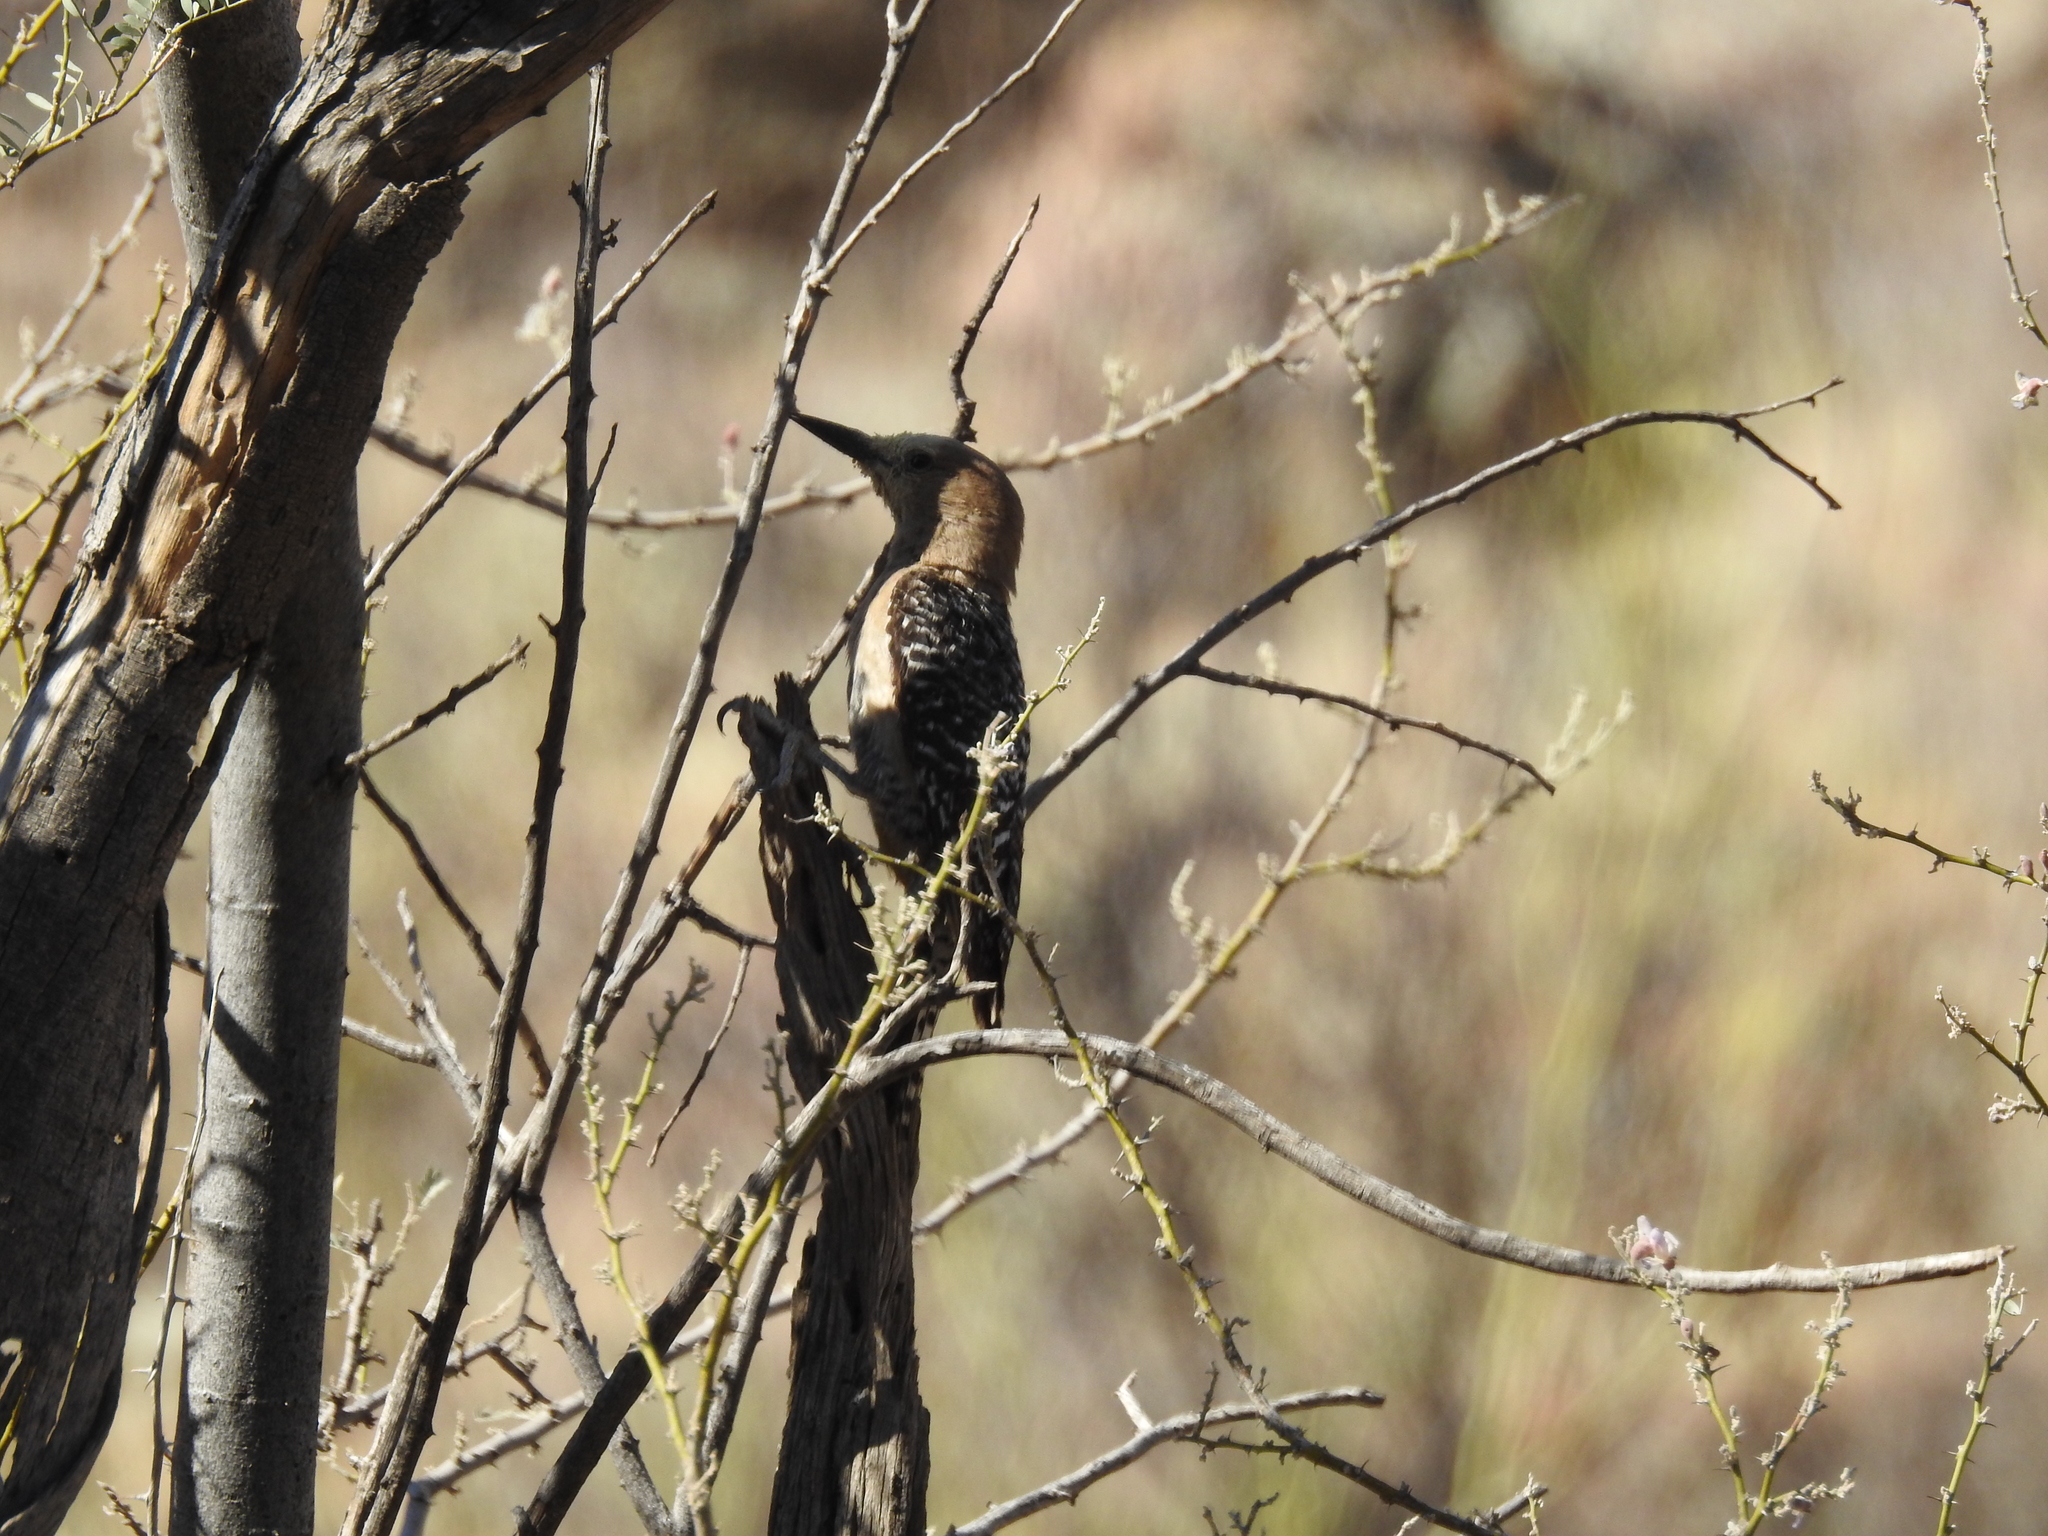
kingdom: Animalia
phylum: Chordata
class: Aves
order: Piciformes
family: Picidae
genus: Melanerpes
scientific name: Melanerpes uropygialis
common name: Gila woodpecker
